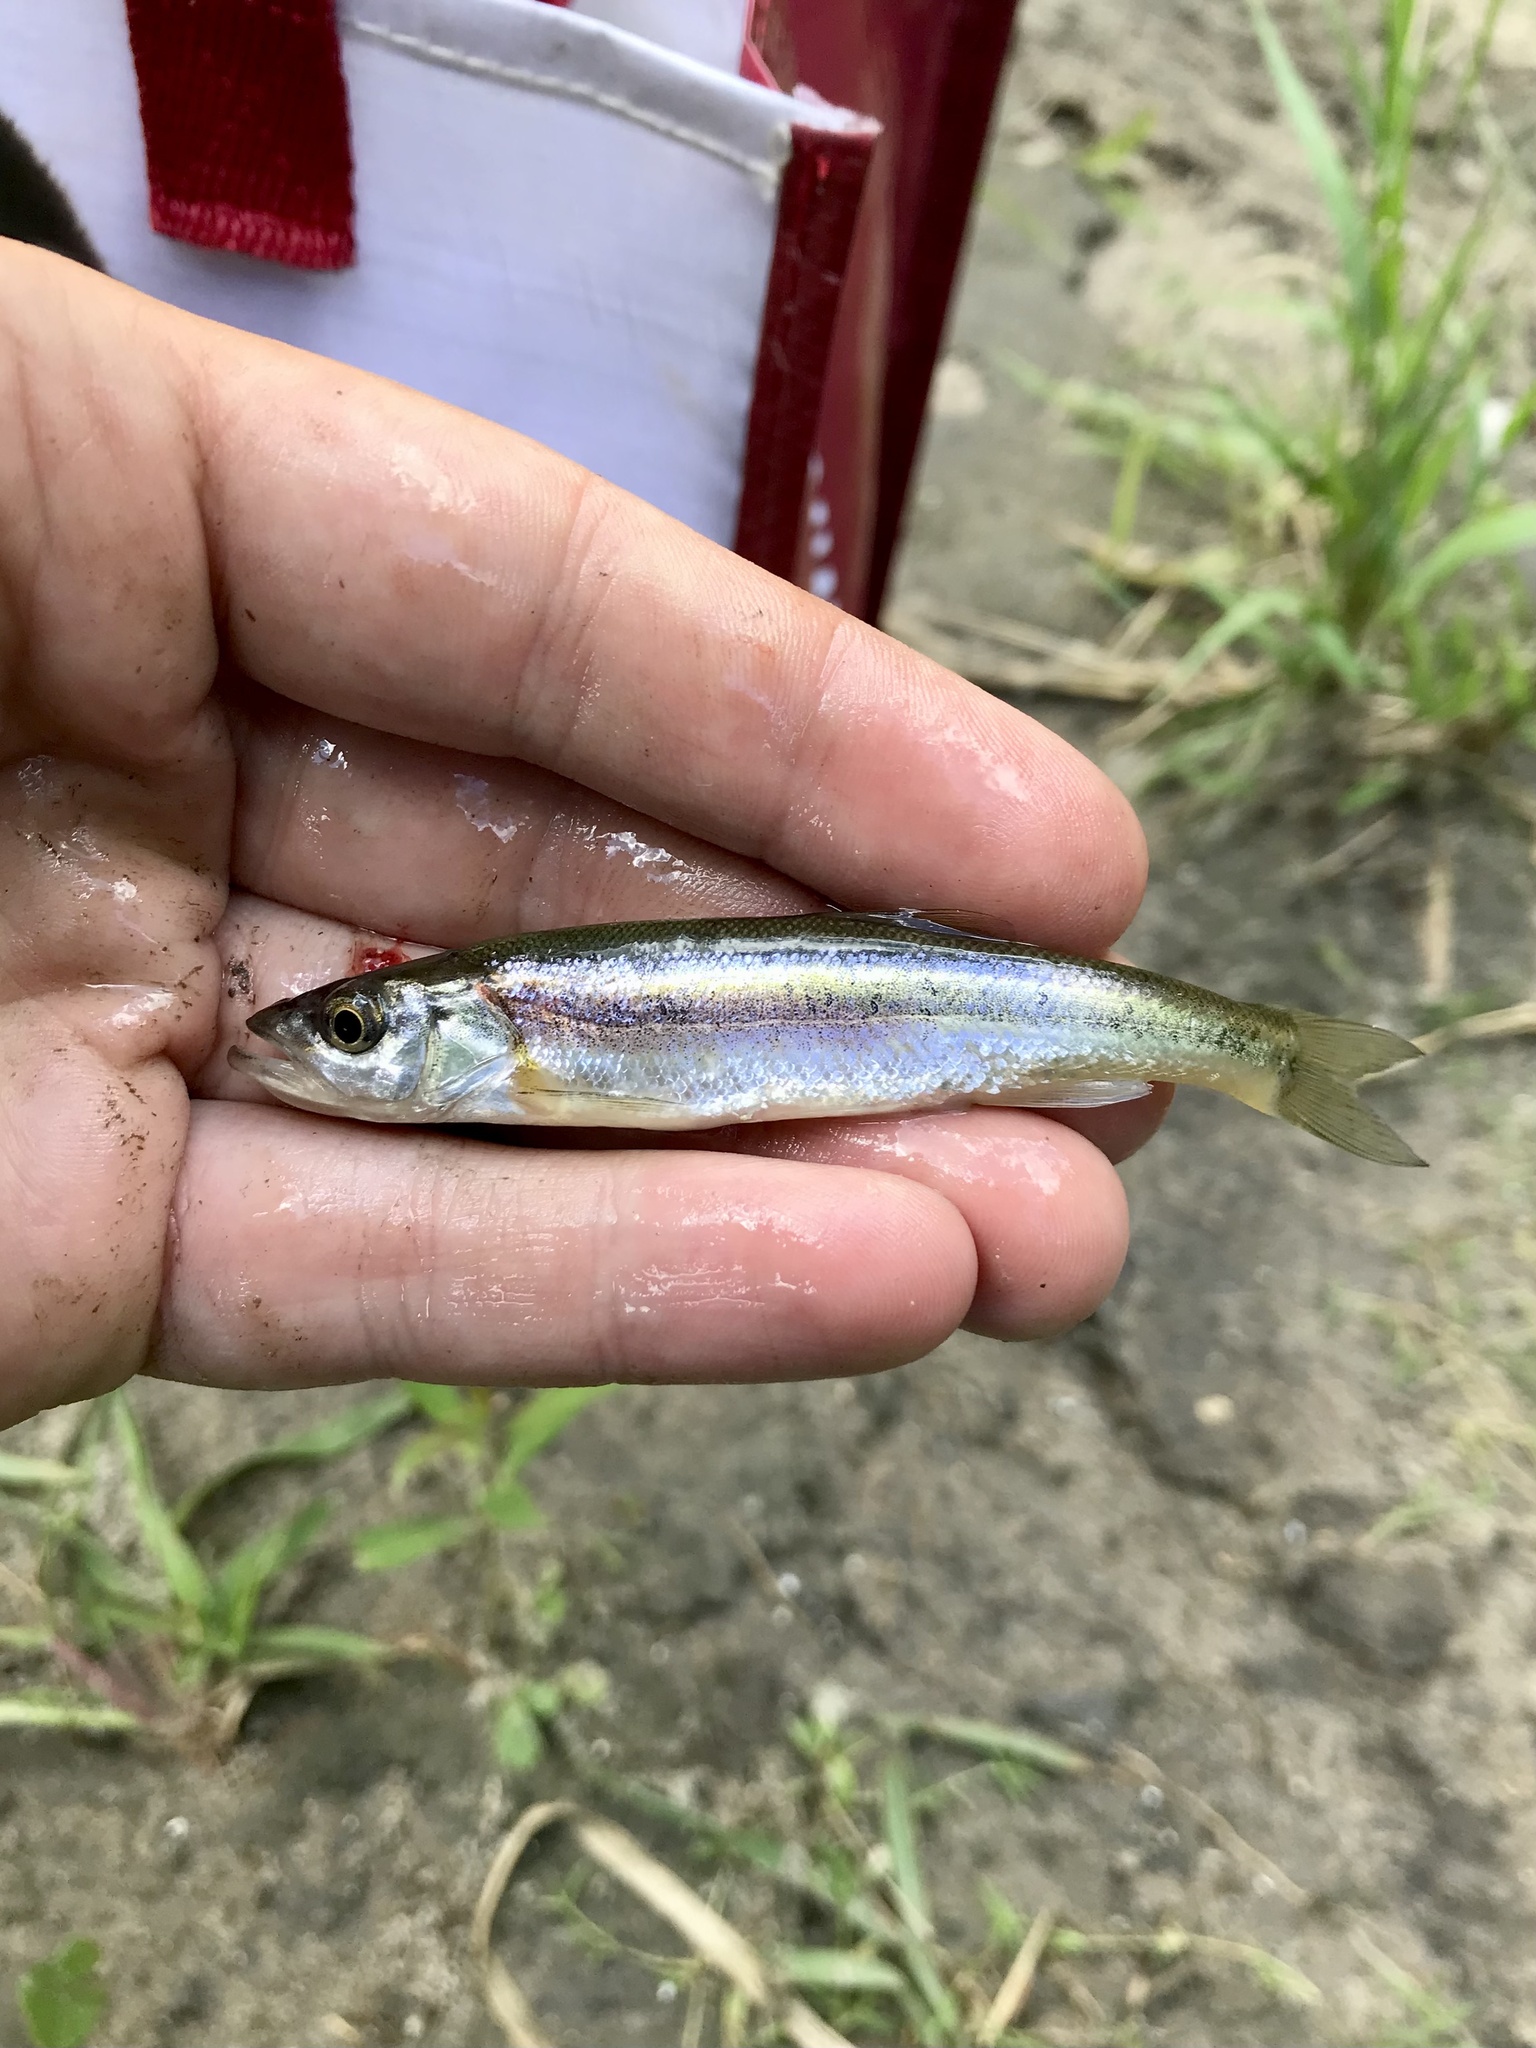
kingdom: Animalia
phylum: Chordata
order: Cypriniformes
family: Cyprinidae
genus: Clinostomus
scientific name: Clinostomus elongatus
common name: Redside dace
